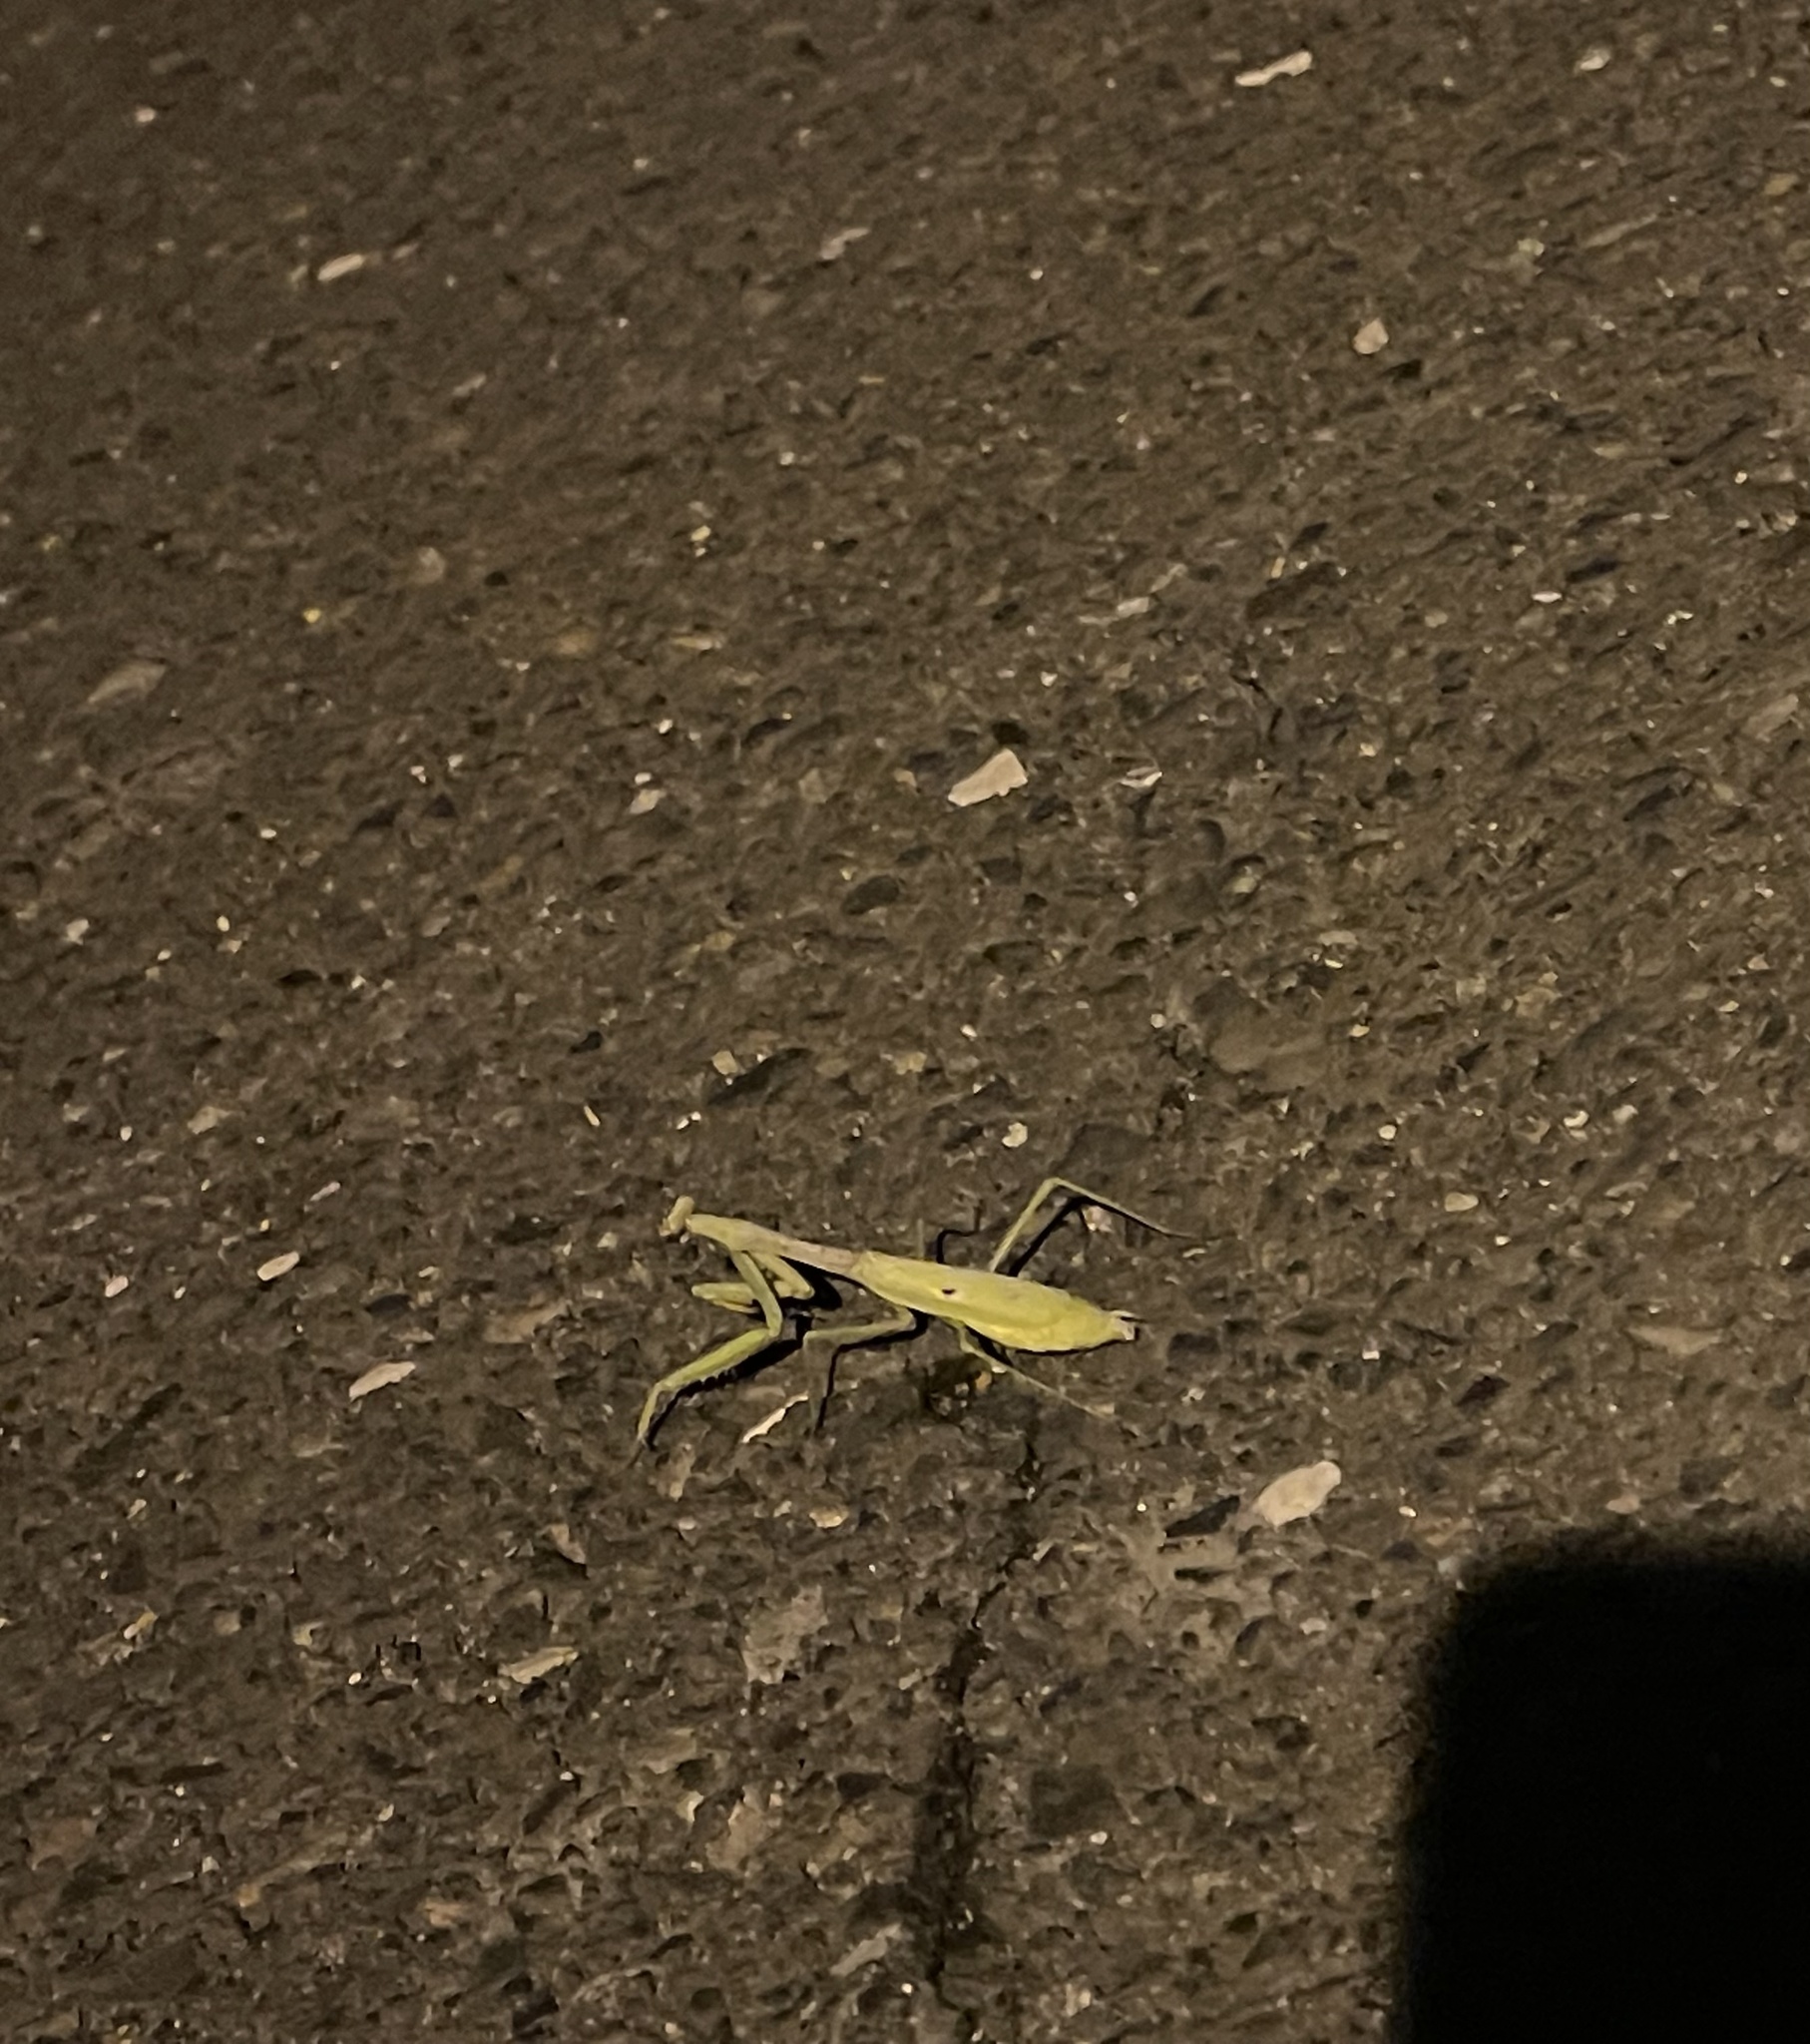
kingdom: Animalia
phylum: Arthropoda
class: Insecta
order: Mantodea
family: Mantidae
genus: Stagmomantis
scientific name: Stagmomantis carolina
